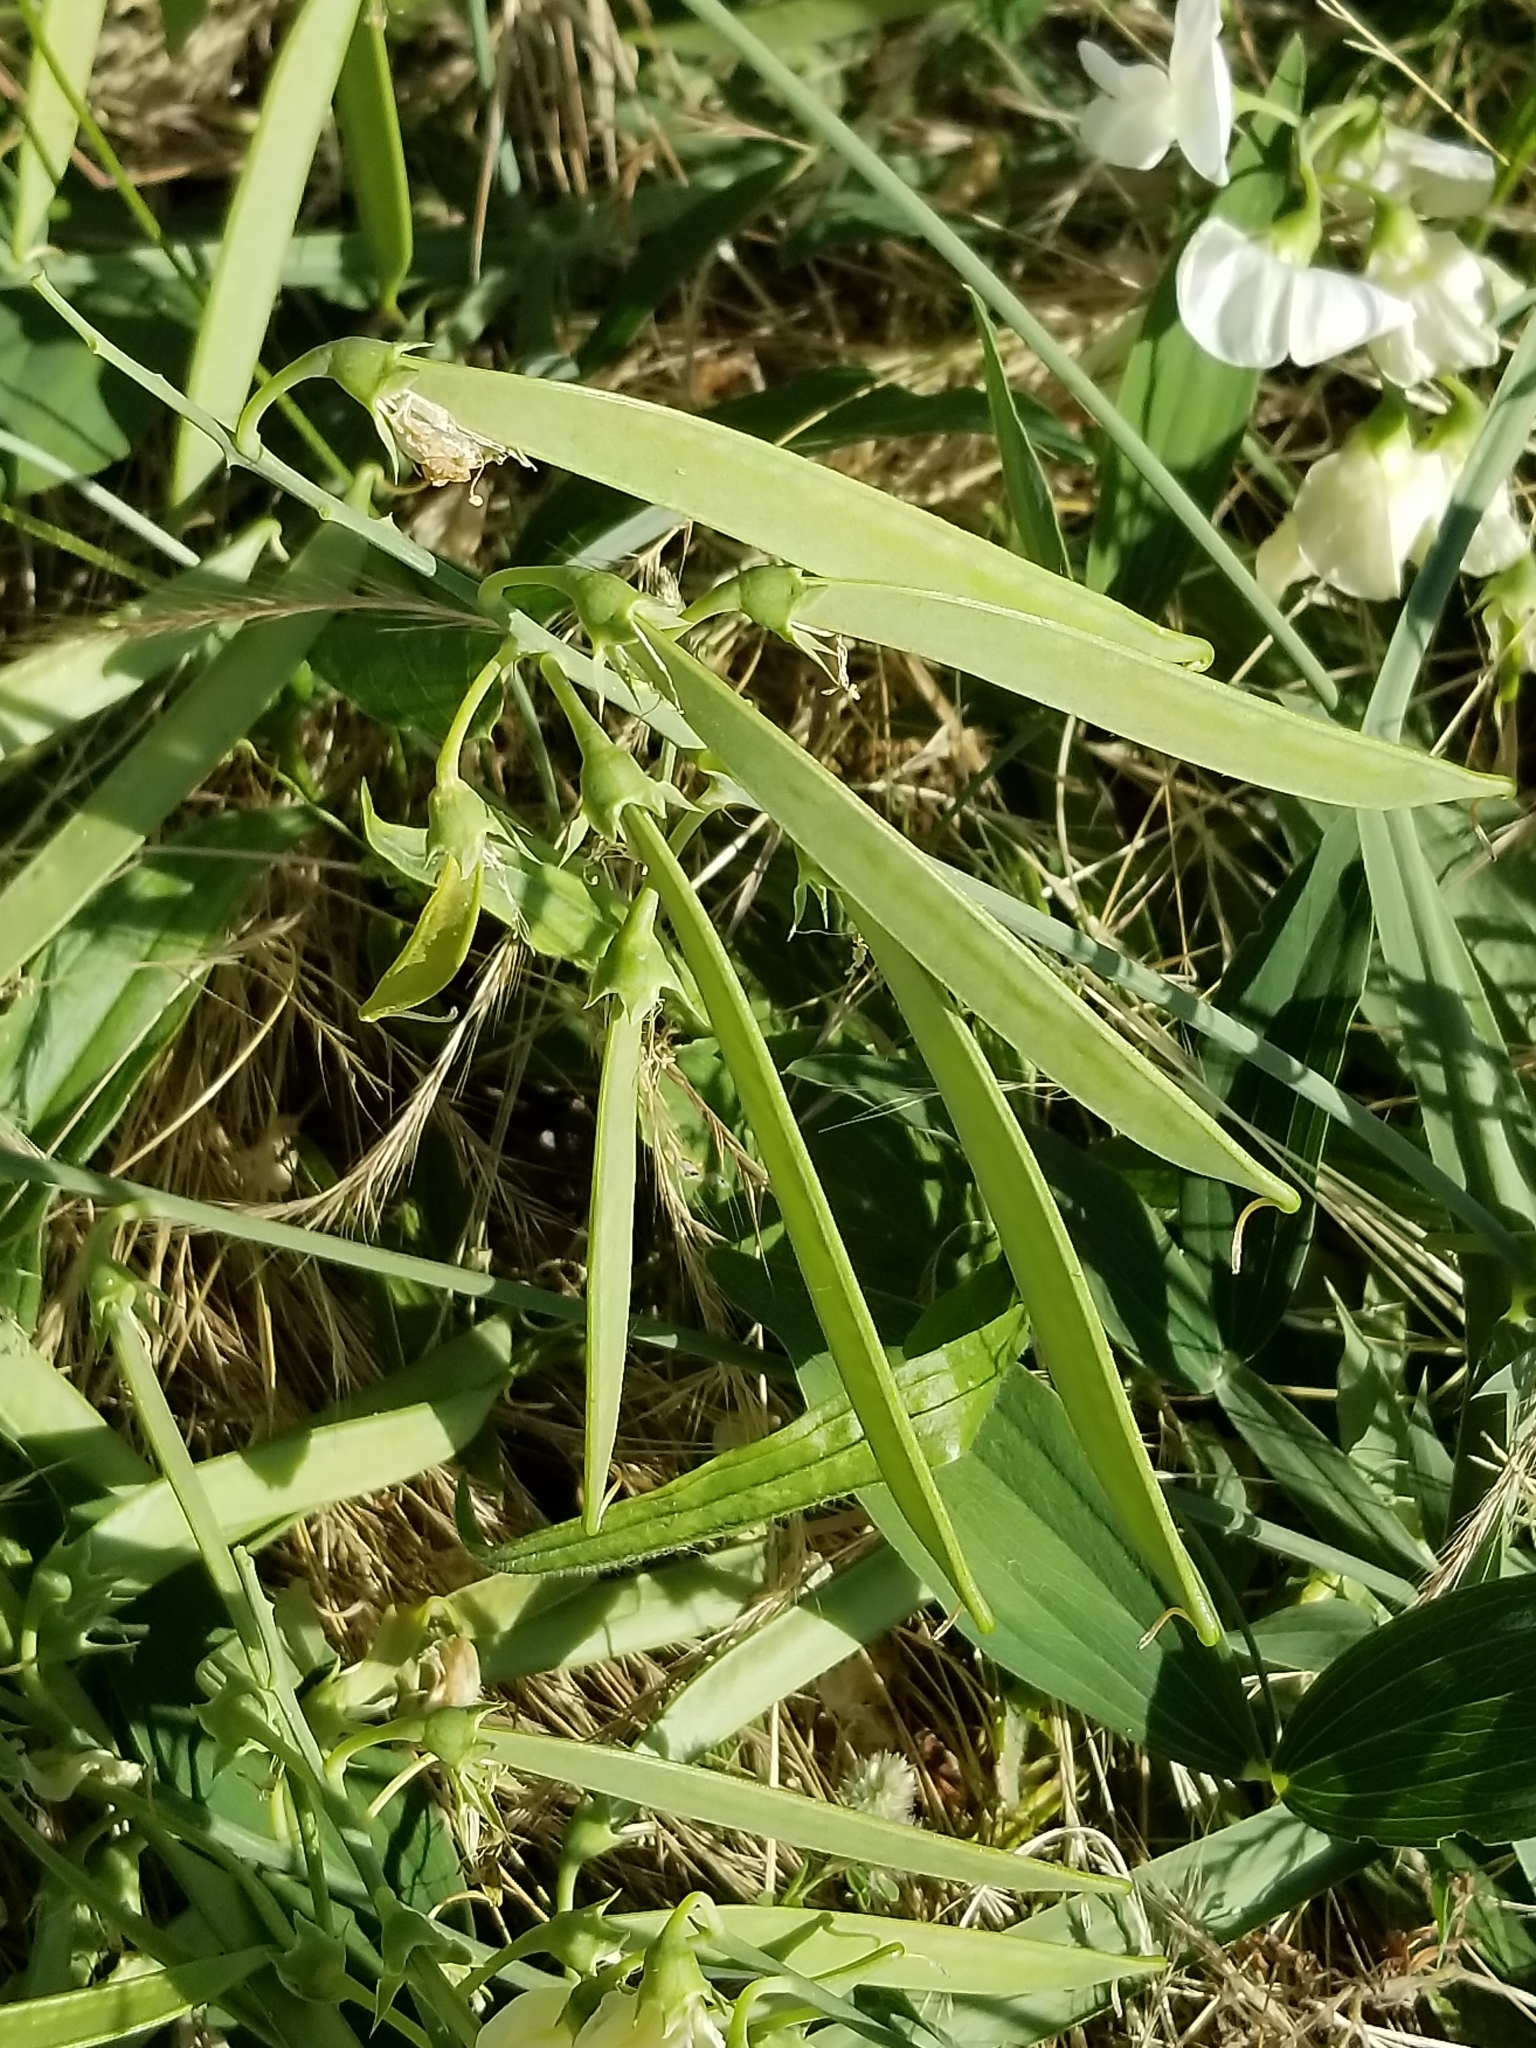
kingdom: Plantae
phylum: Tracheophyta
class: Magnoliopsida
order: Fabales
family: Fabaceae
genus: Lathyrus
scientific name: Lathyrus latifolius
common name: Perennial pea
